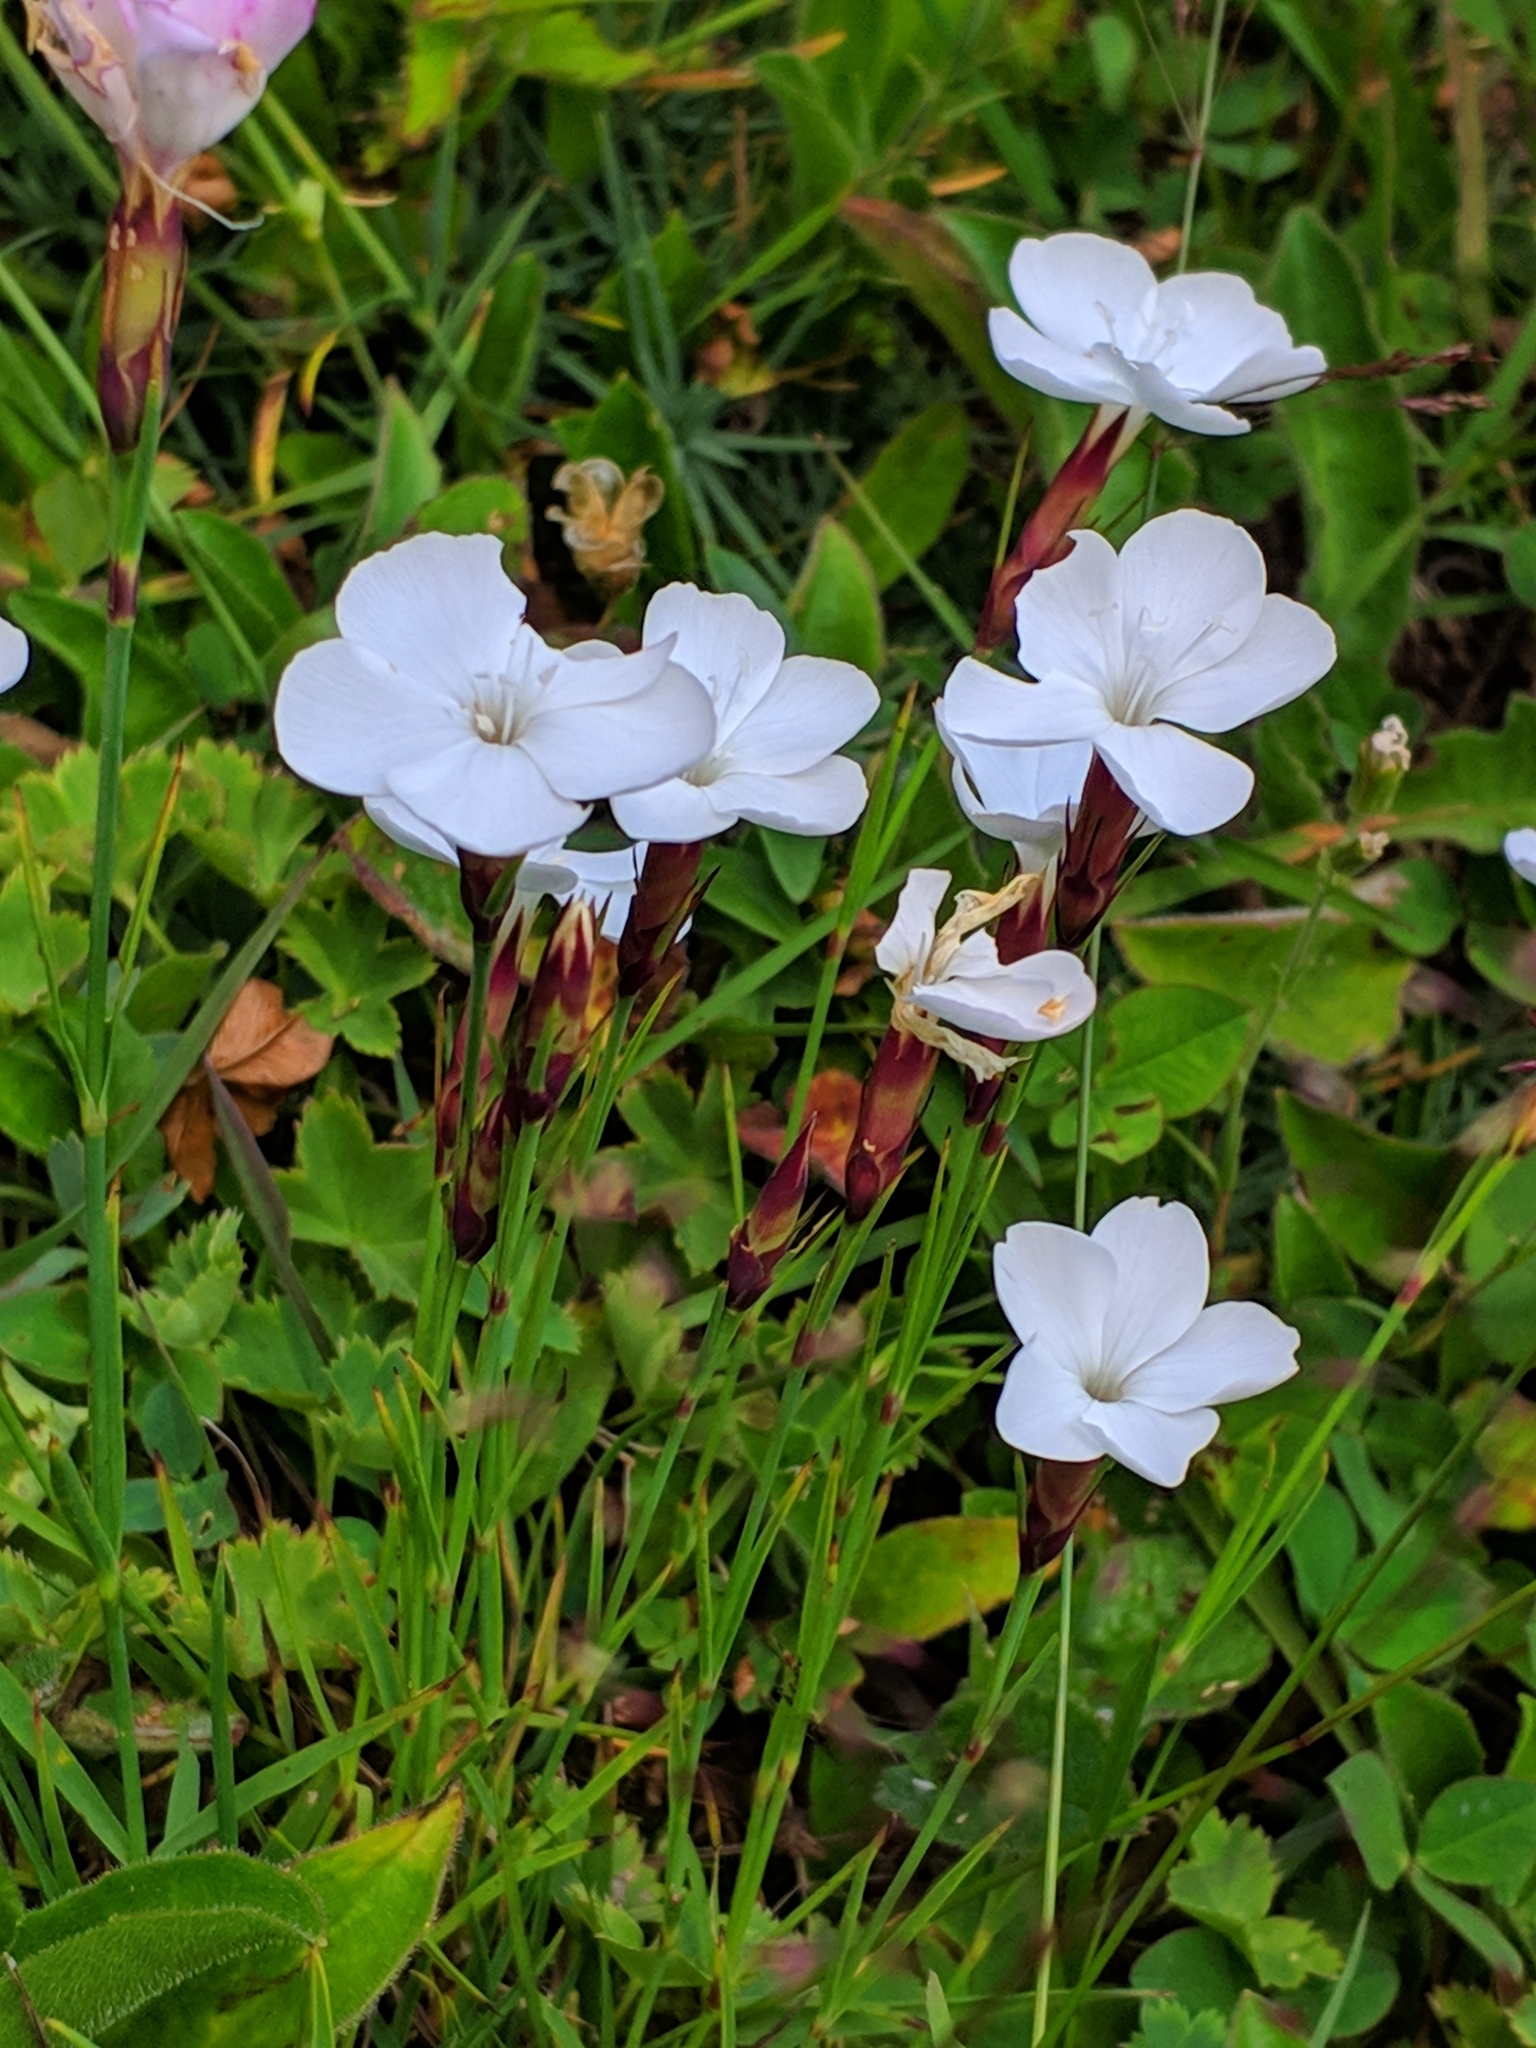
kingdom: Plantae
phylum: Tracheophyta
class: Magnoliopsida
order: Caryophyllales
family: Caryophyllaceae
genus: Dianthus
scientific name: Dianthus cretaceus
